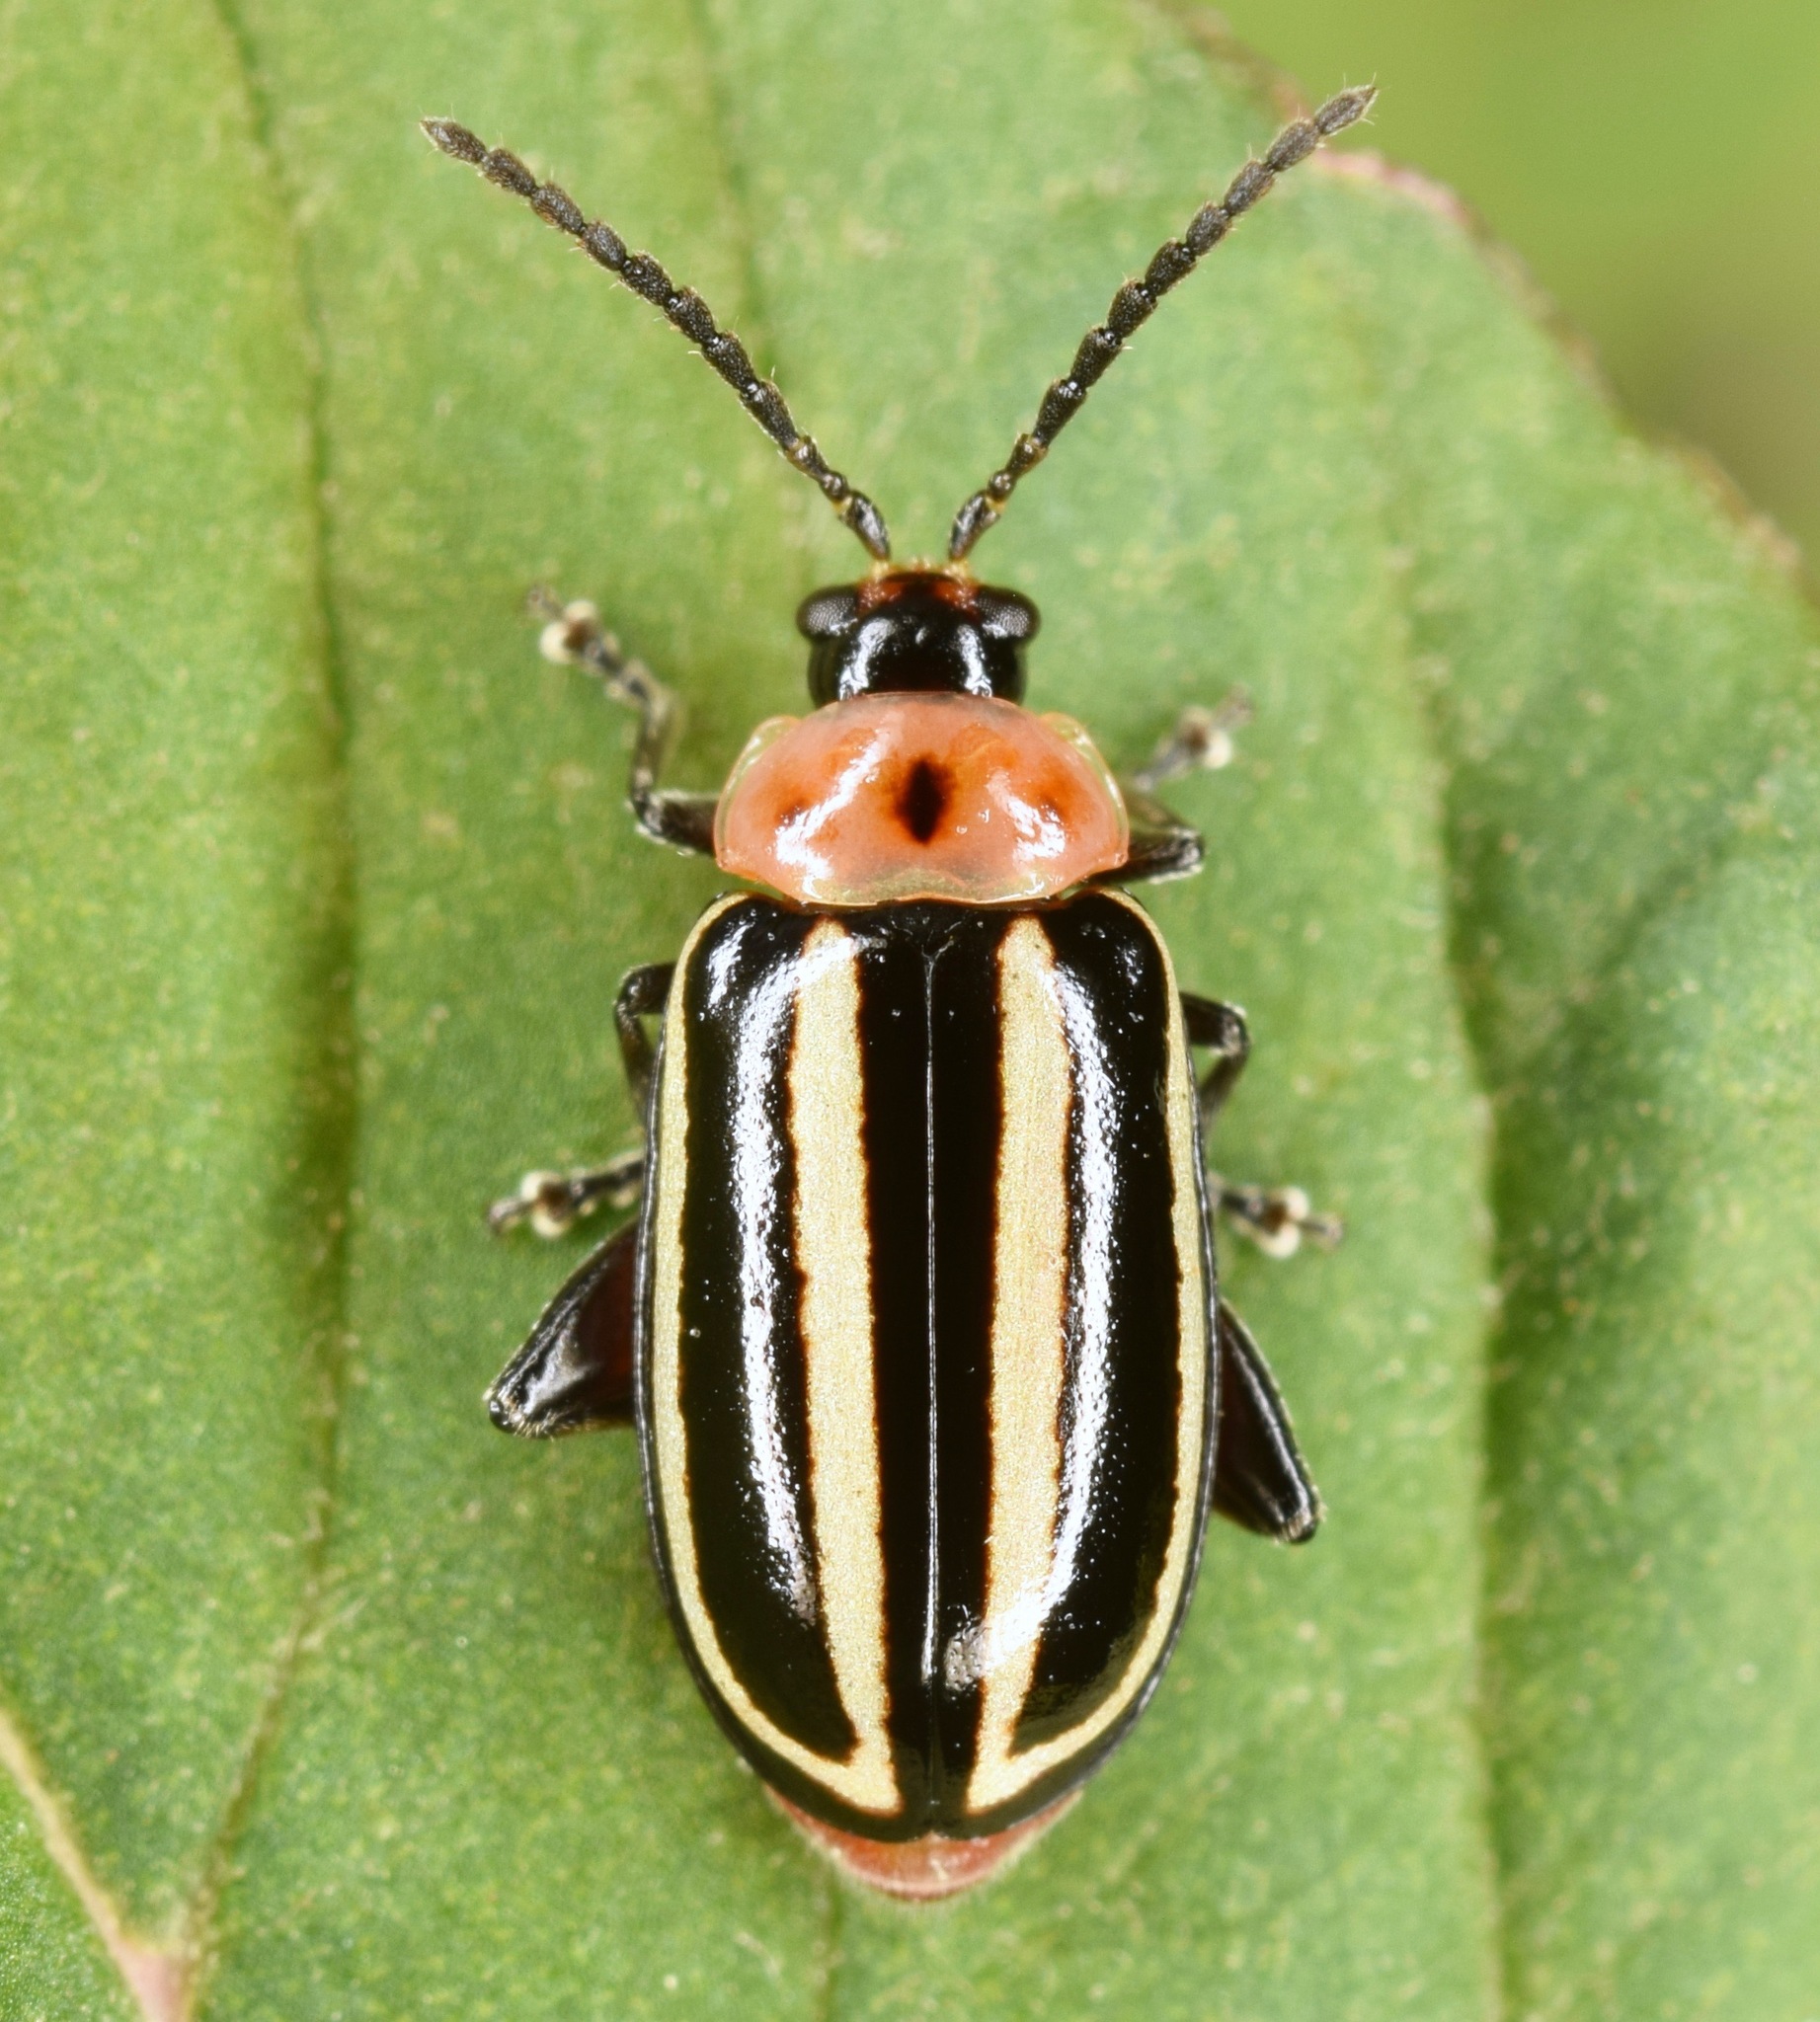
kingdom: Animalia
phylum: Arthropoda
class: Insecta
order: Coleoptera
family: Chrysomelidae
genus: Disonycha
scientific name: Disonycha glabrata
